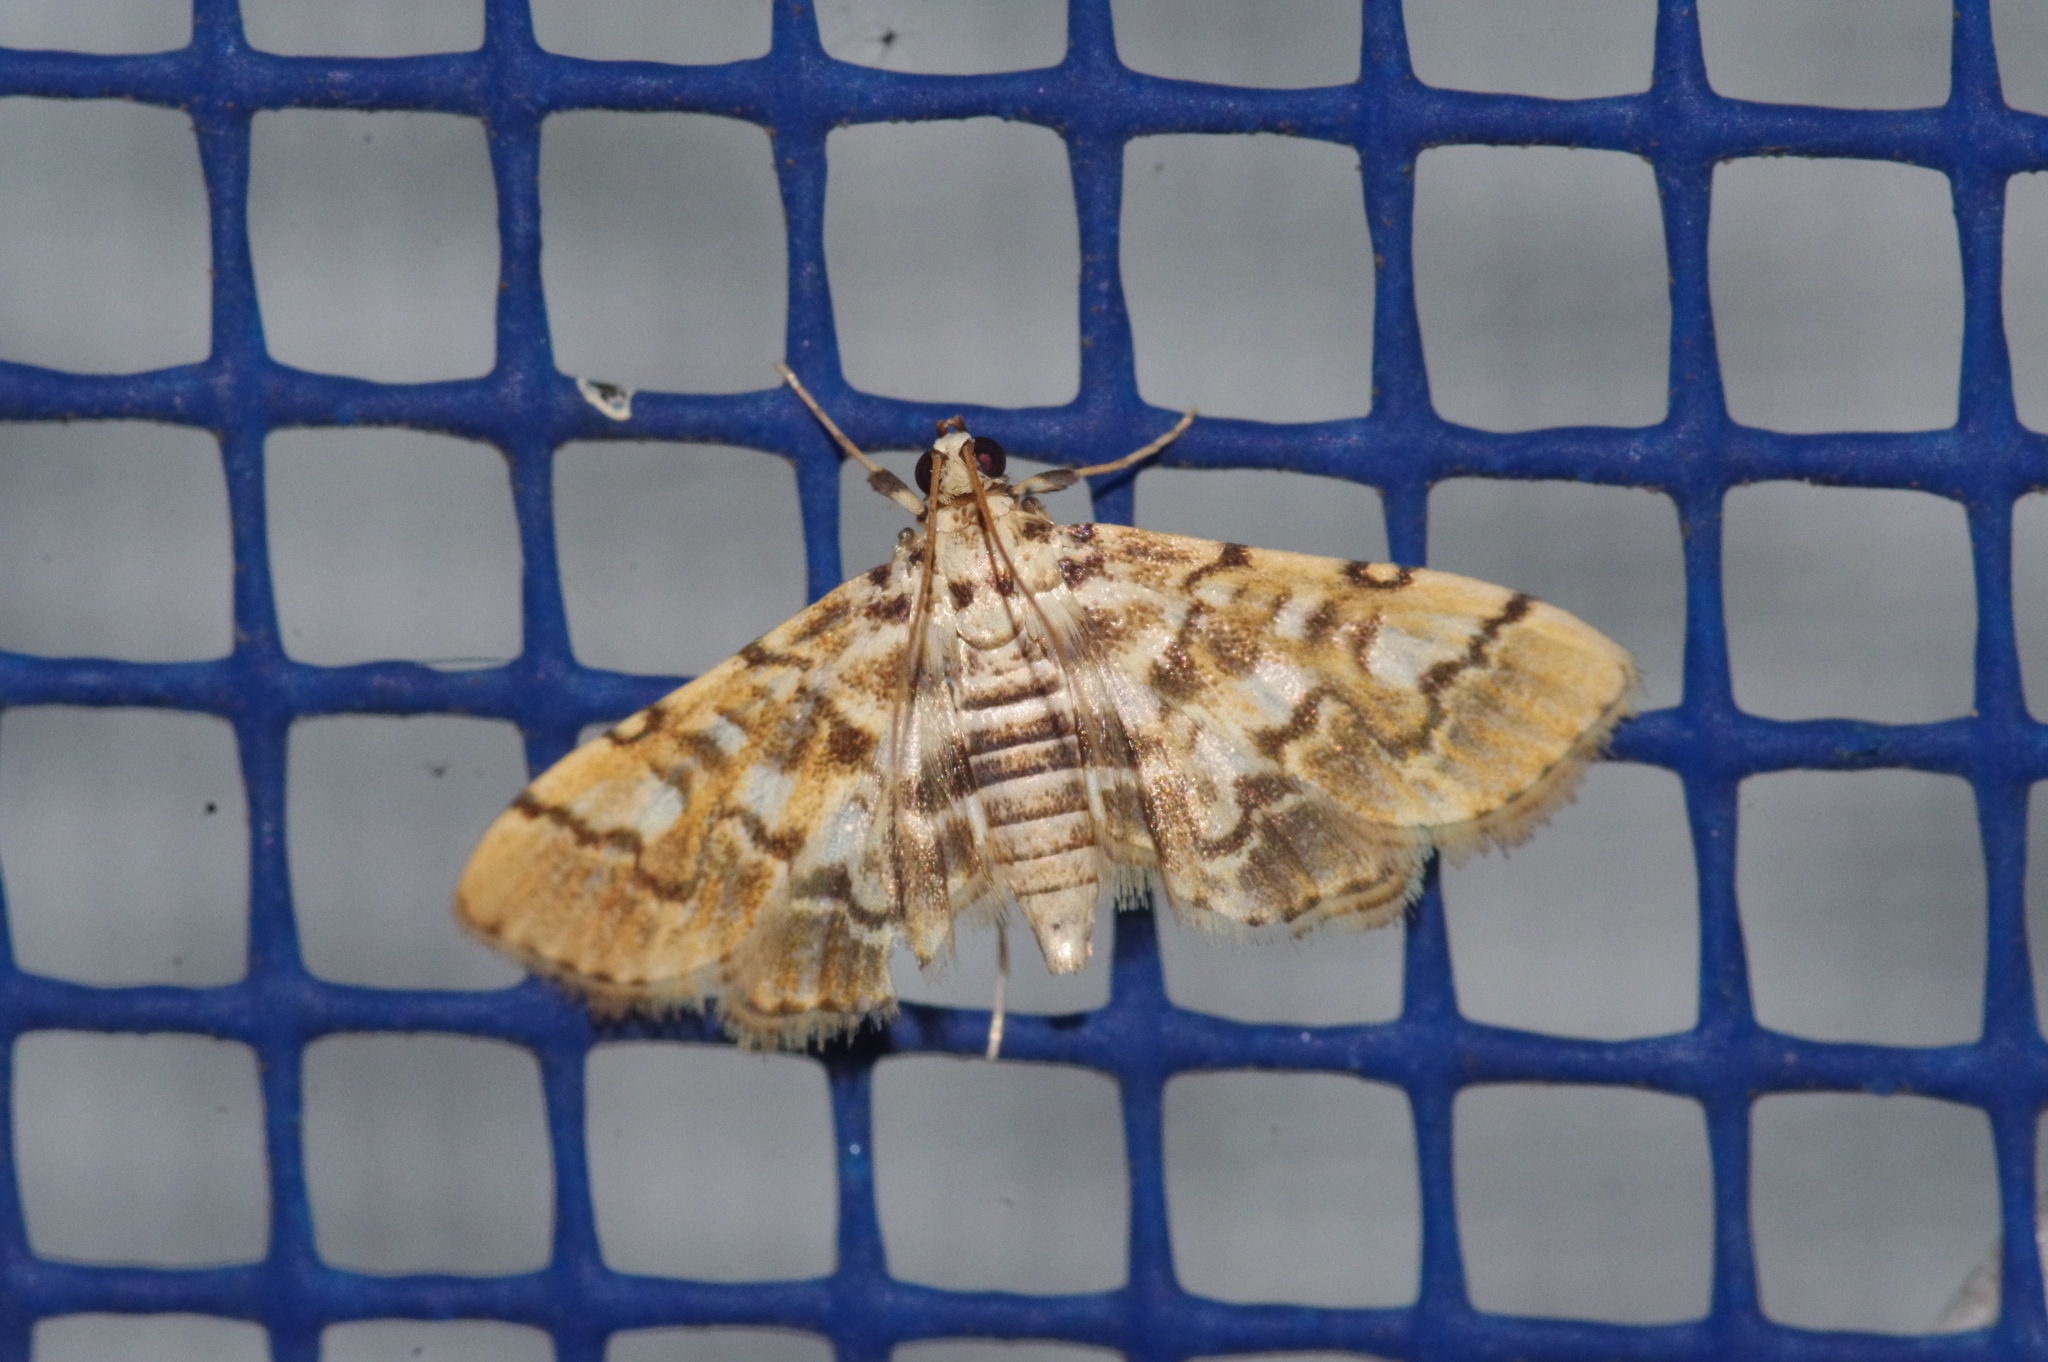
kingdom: Animalia
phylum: Arthropoda
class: Insecta
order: Lepidoptera
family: Crambidae
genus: Lamprosema
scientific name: Lamprosema commixta
